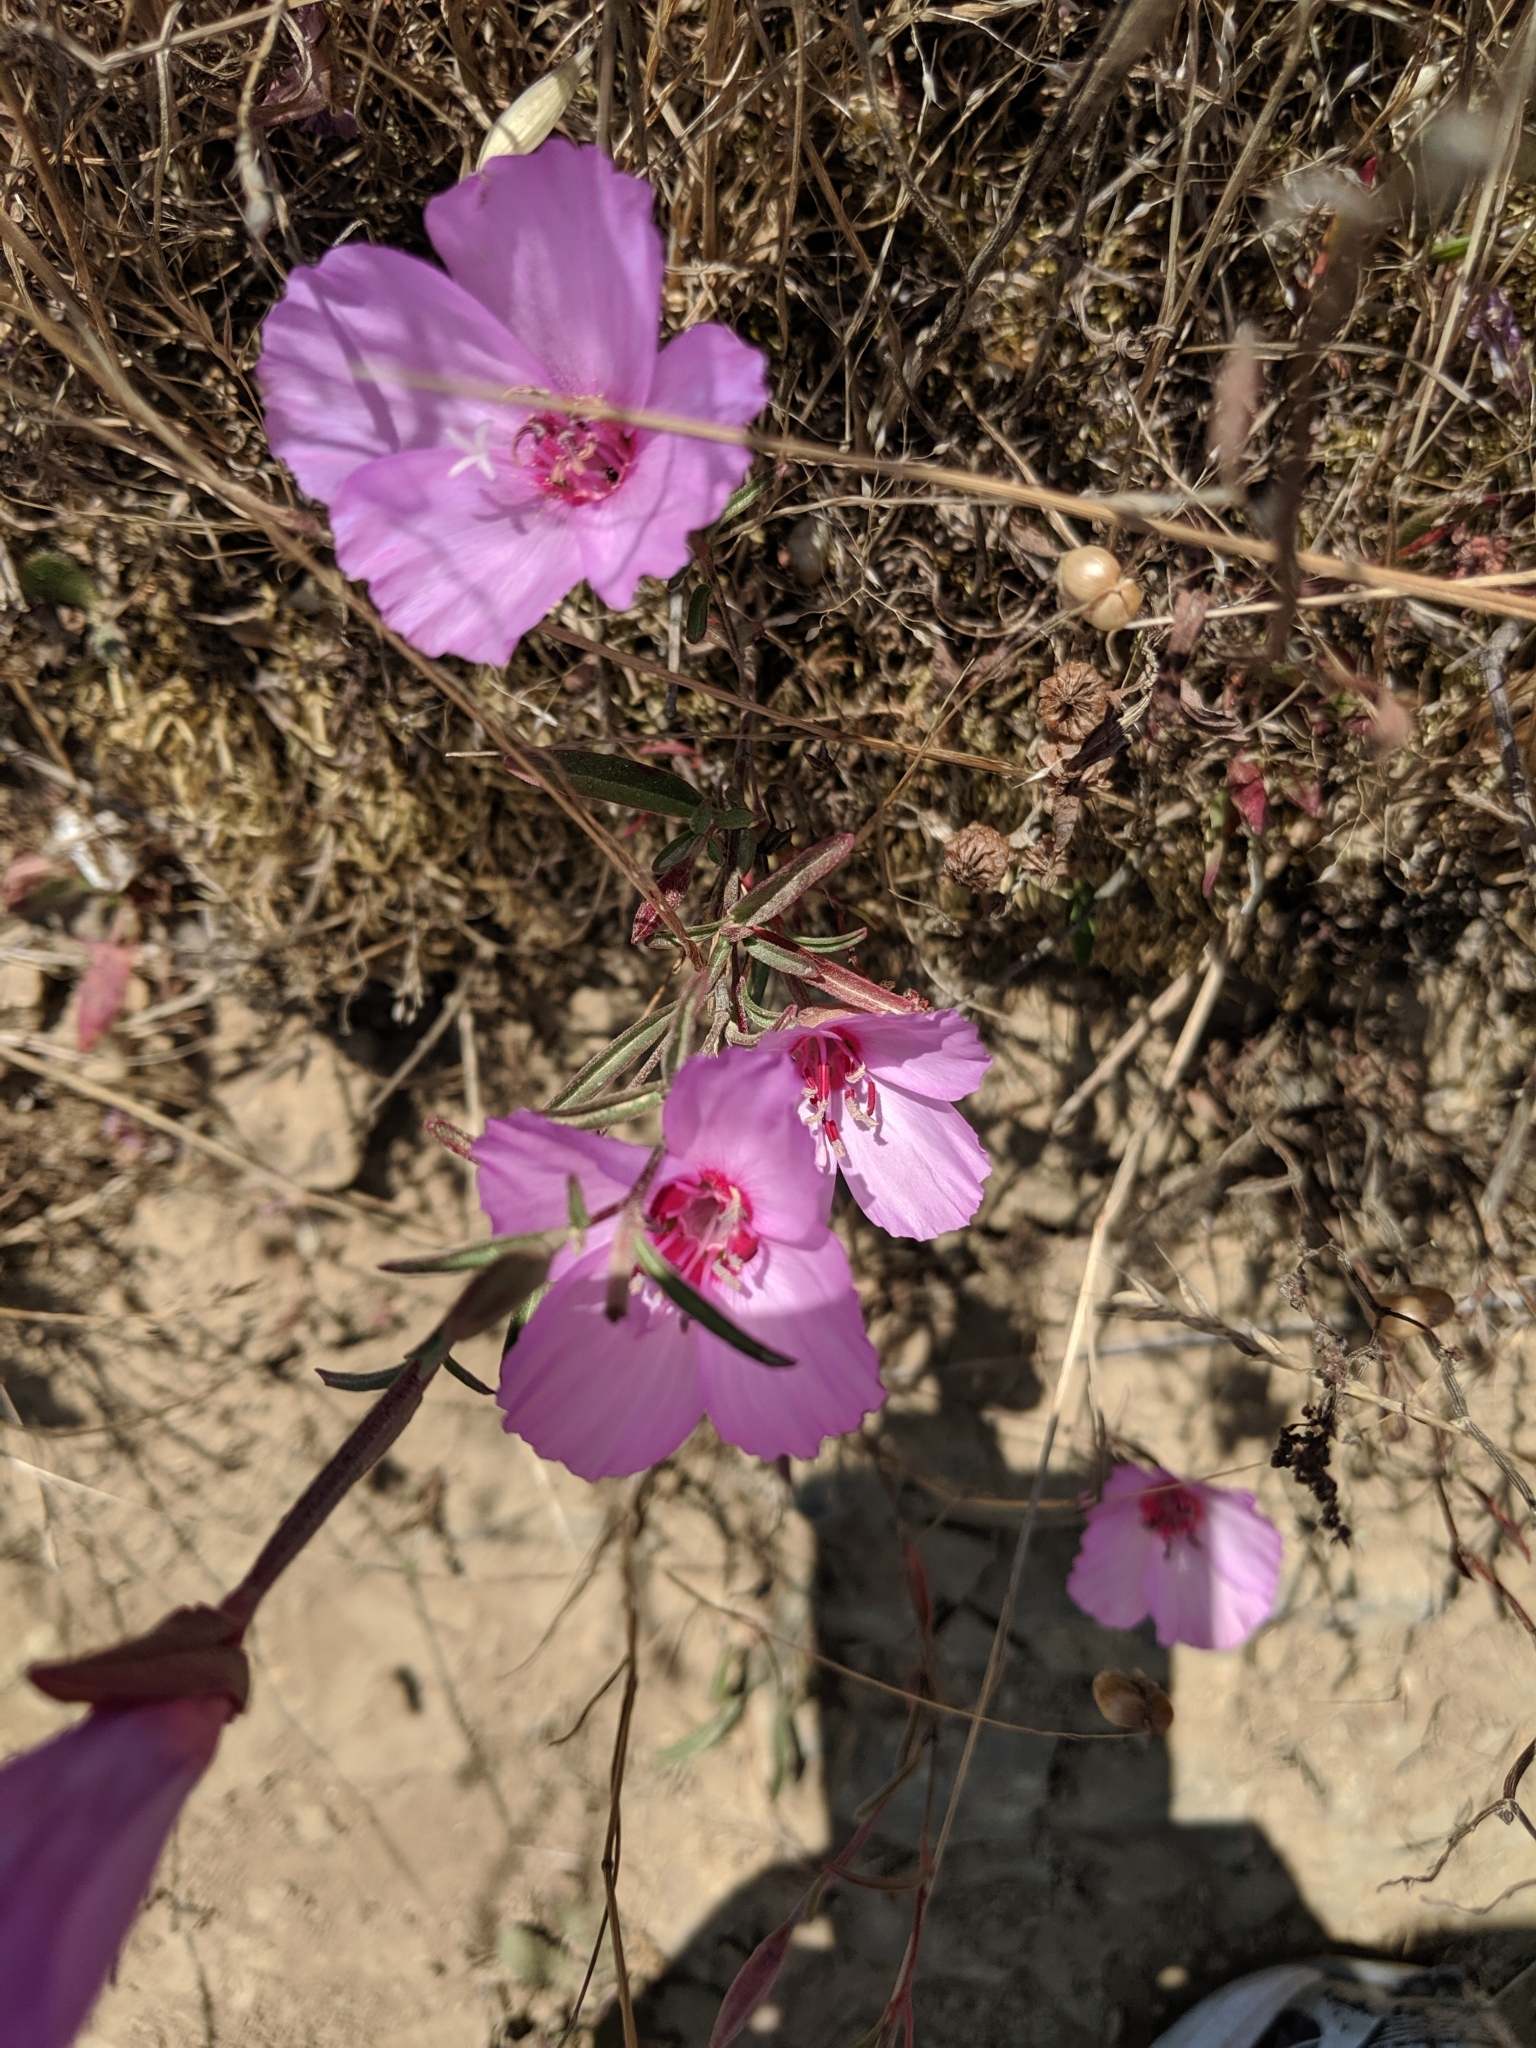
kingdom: Plantae
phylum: Tracheophyta
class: Magnoliopsida
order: Myrtales
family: Onagraceae
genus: Clarkia
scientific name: Clarkia rubicunda
